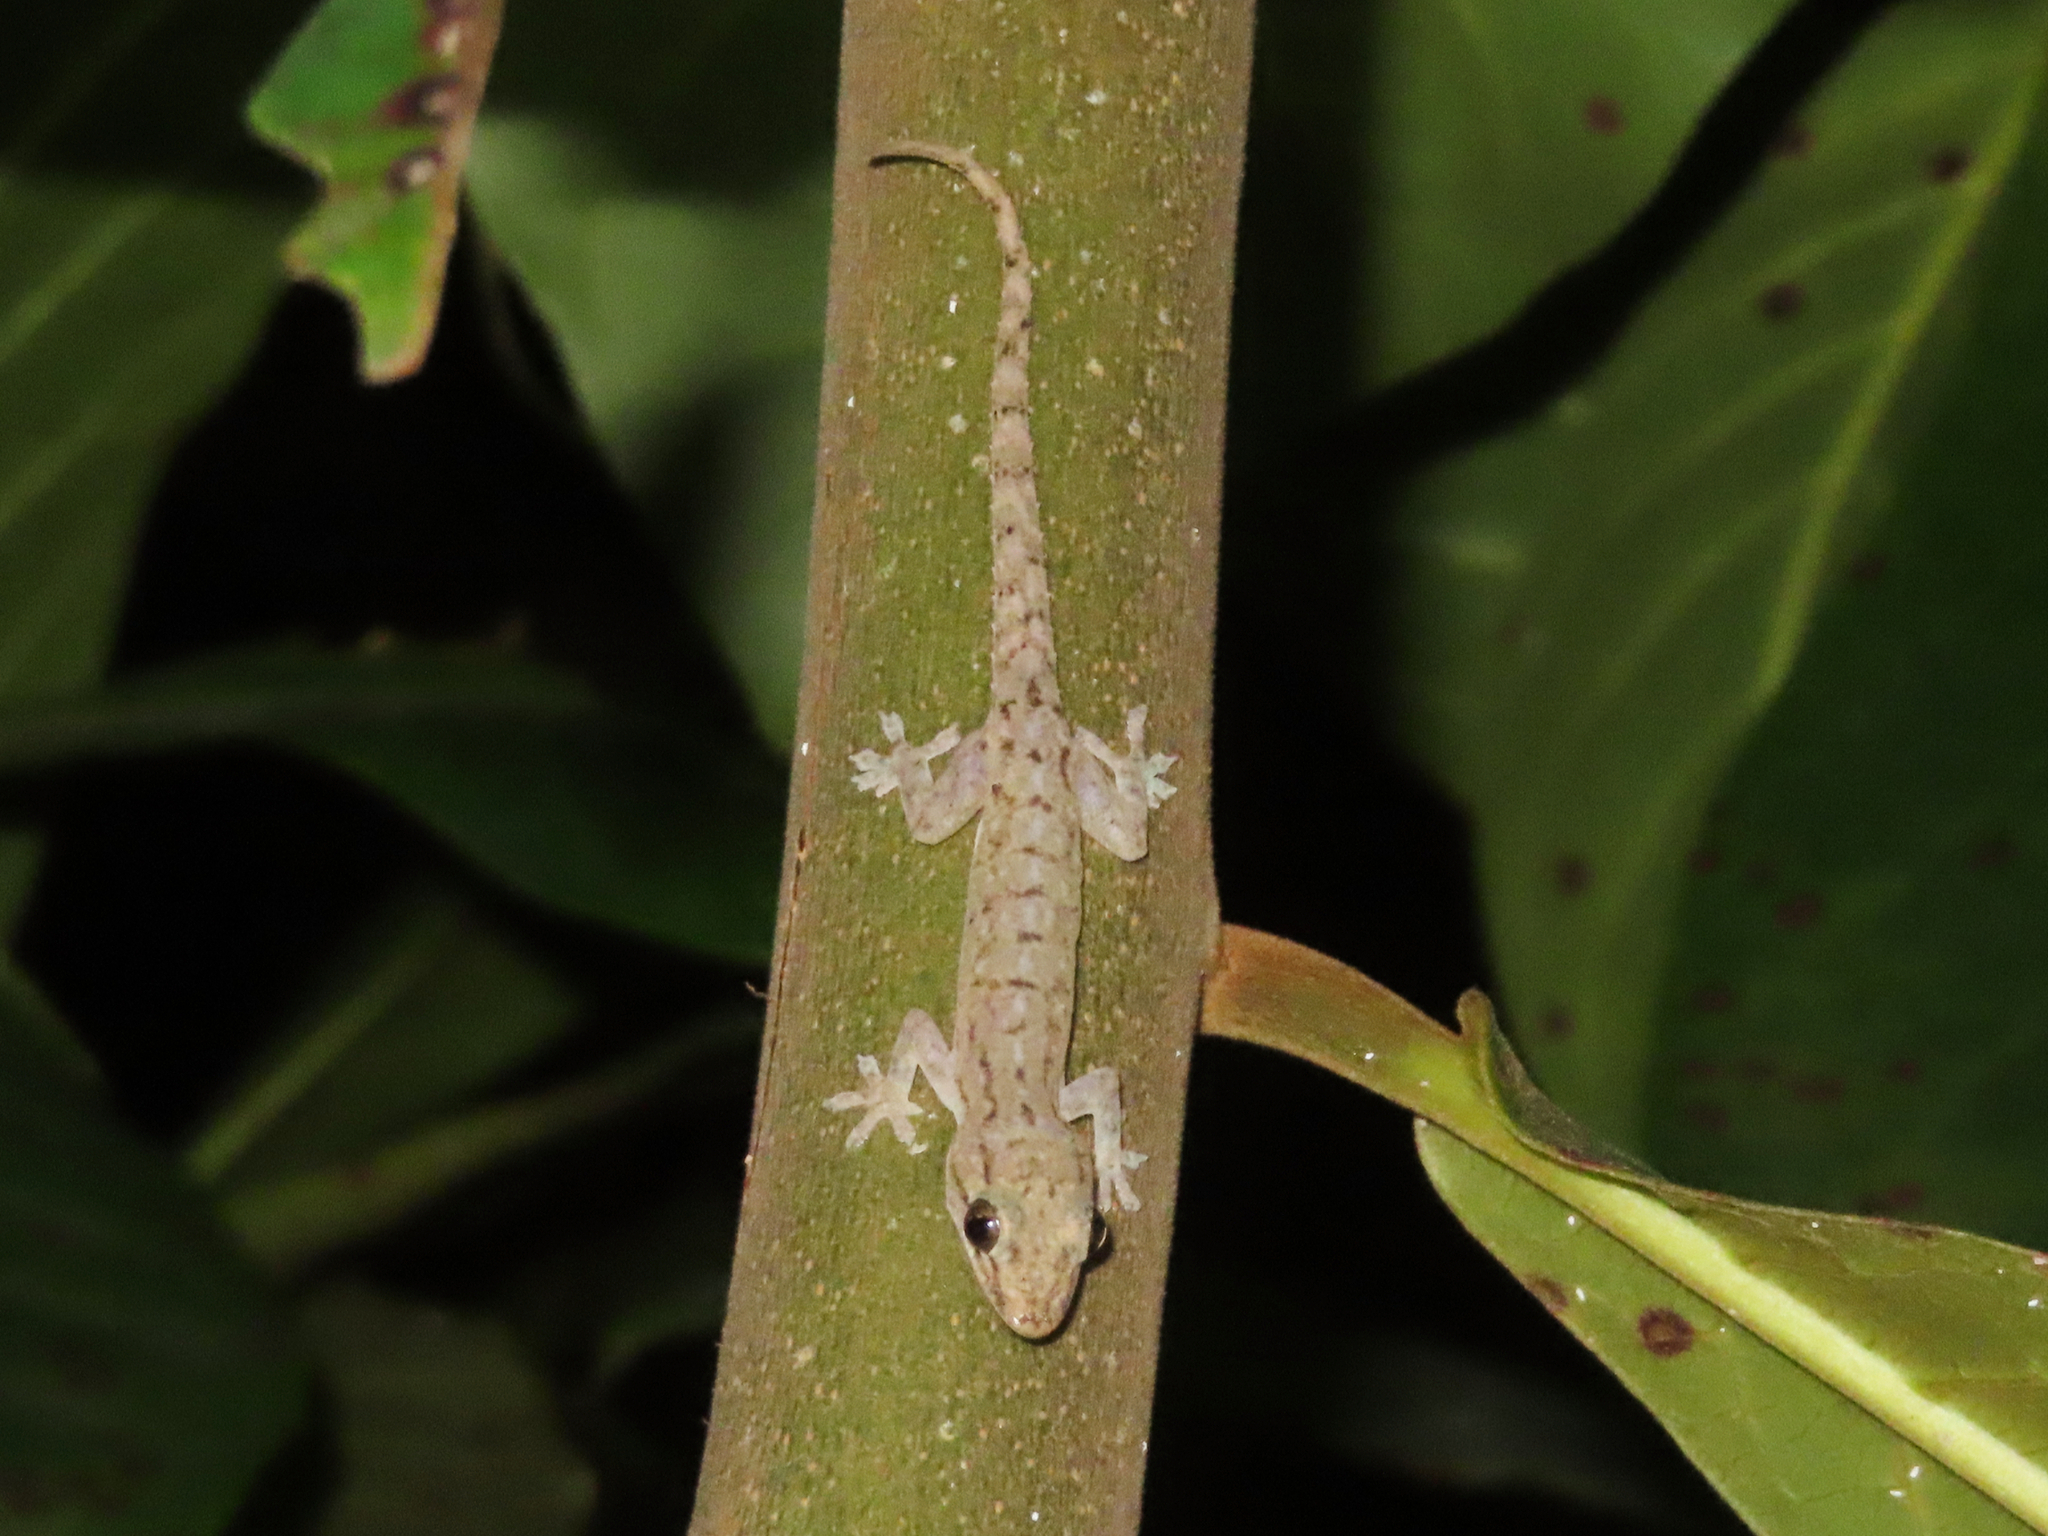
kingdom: Animalia
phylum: Chordata
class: Squamata
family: Gekkonidae
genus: Hemidactylus
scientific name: Hemidactylus frenatus
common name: Common house gecko
